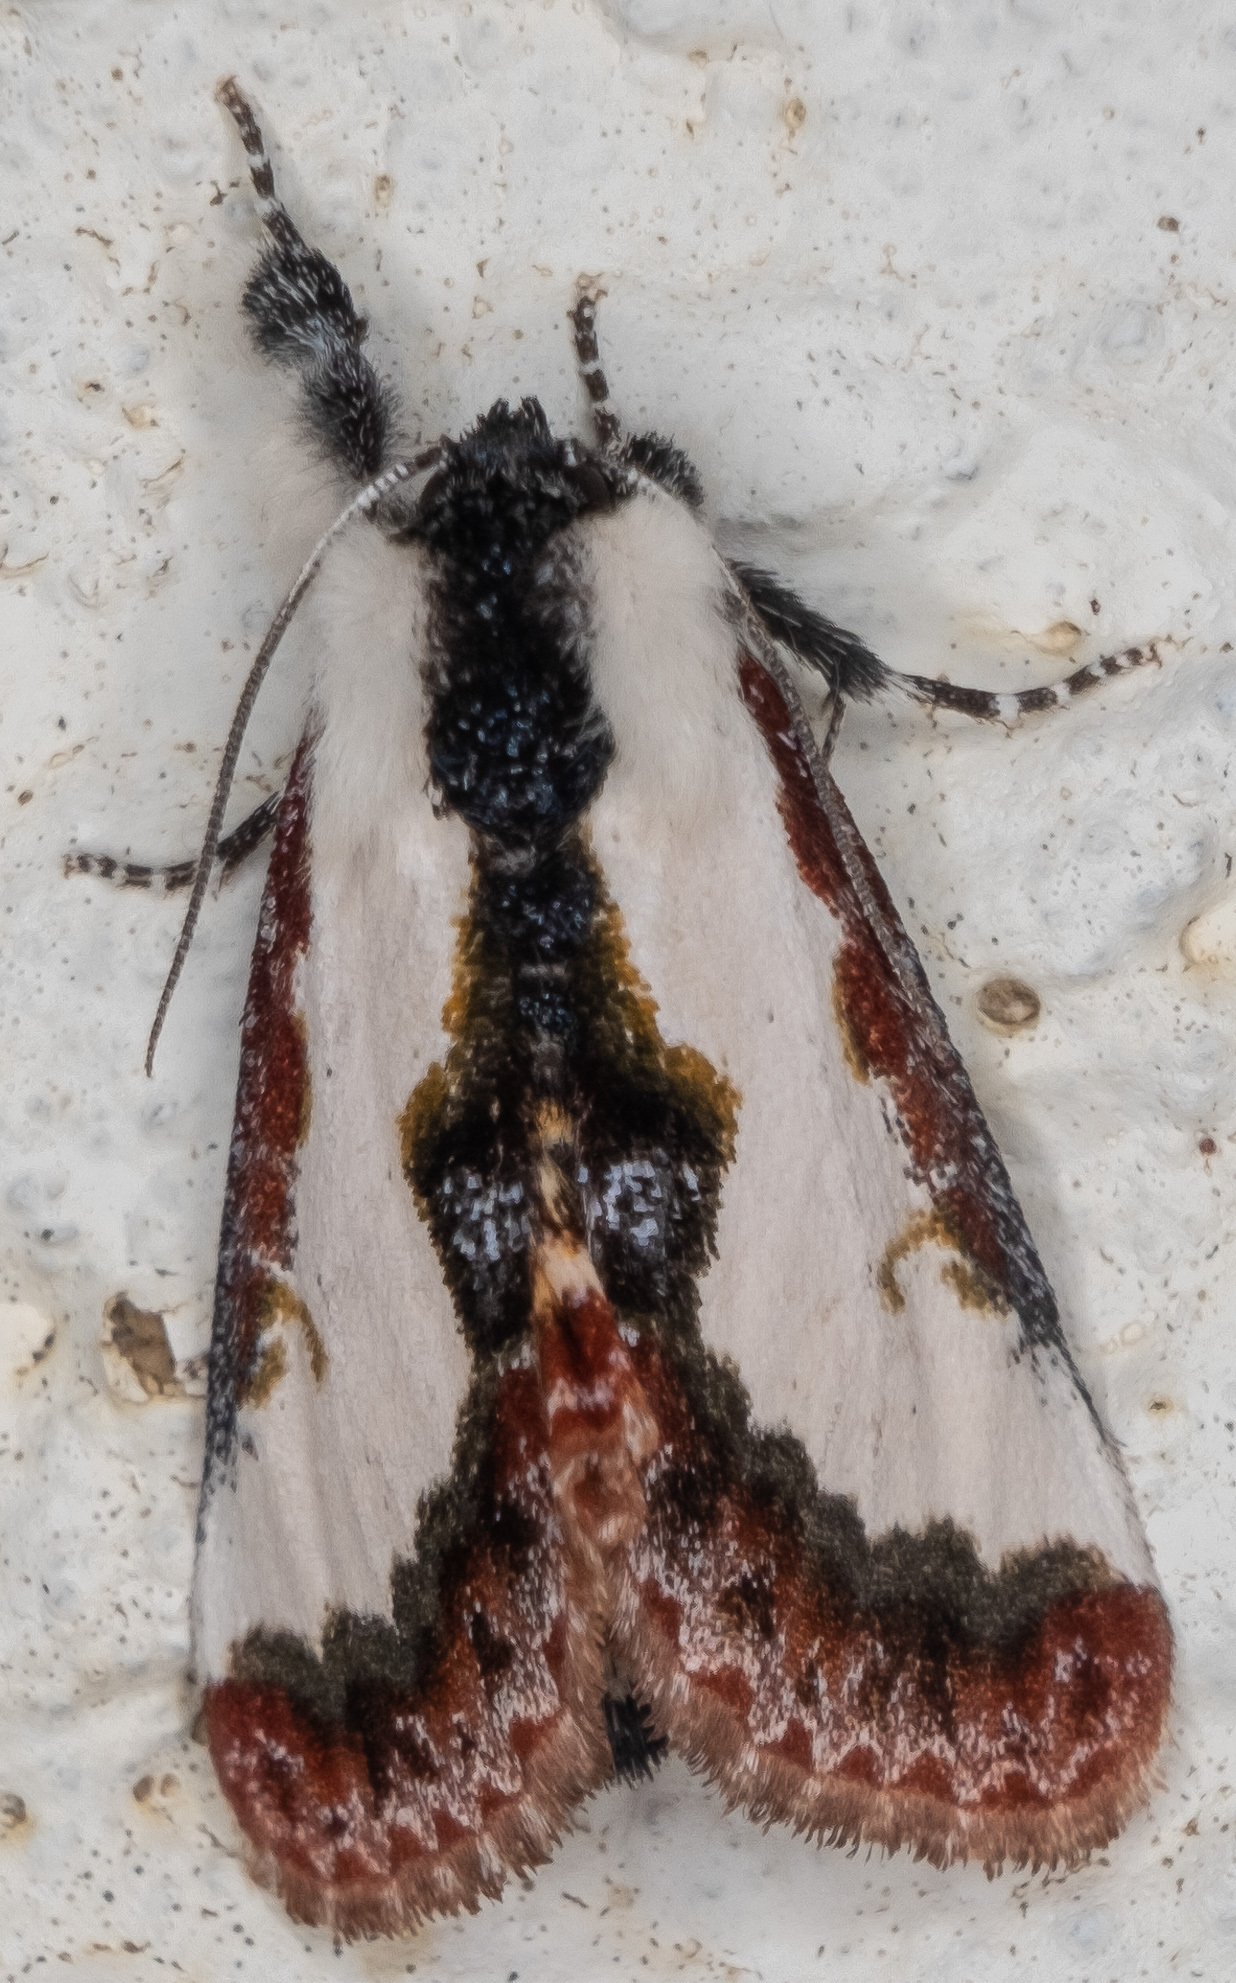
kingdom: Animalia
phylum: Arthropoda
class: Insecta
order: Lepidoptera
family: Noctuidae
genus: Eudryas
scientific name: Eudryas unio
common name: Pearly wood-nymph
